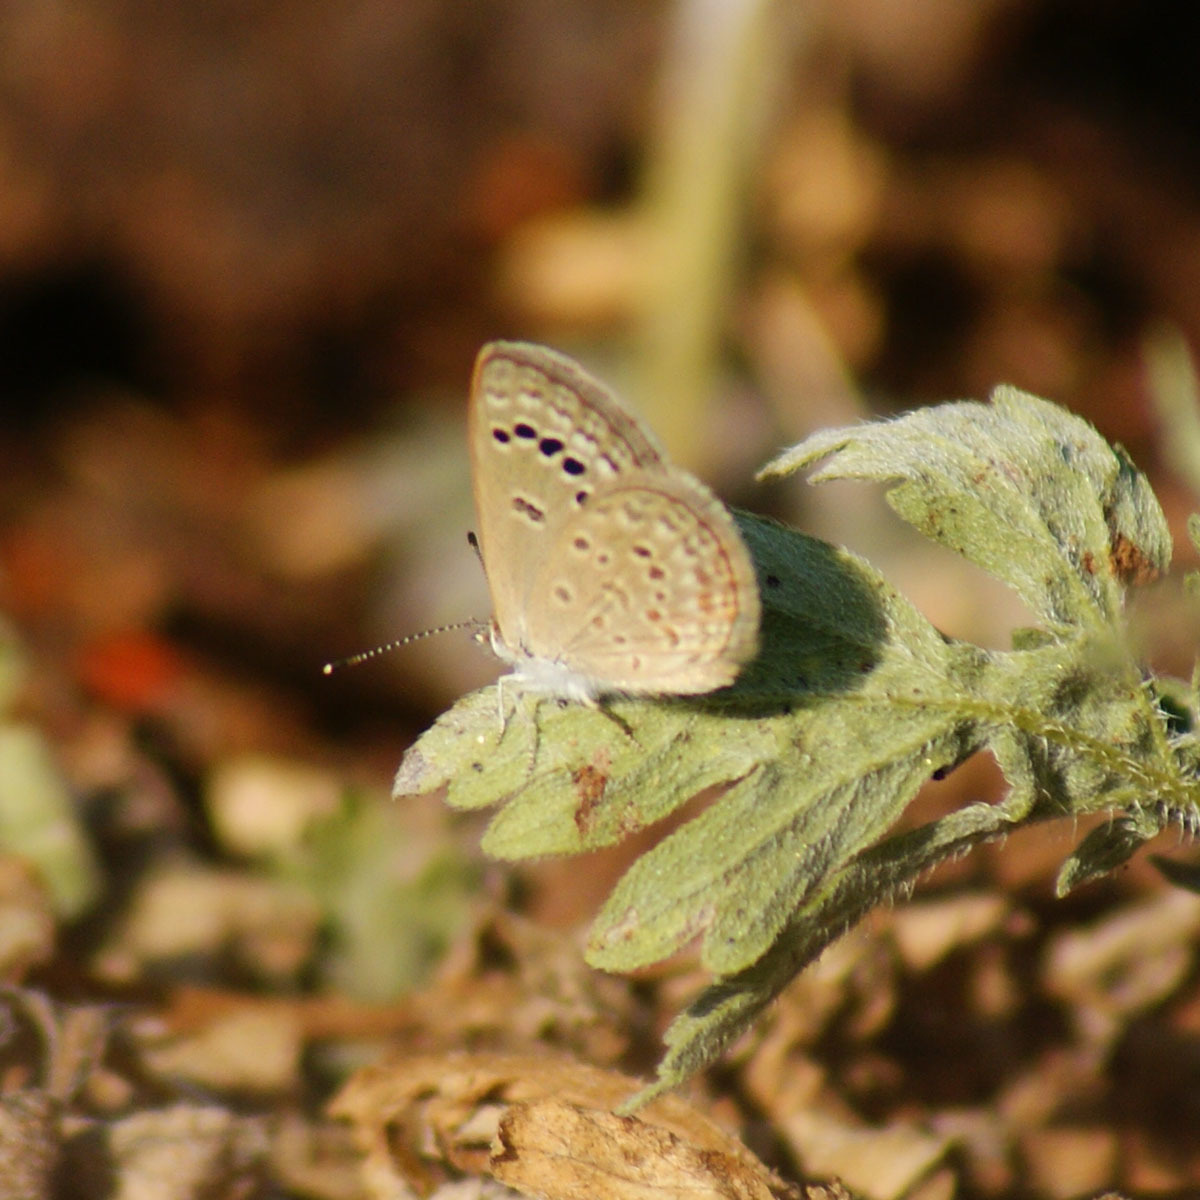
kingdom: Animalia
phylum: Arthropoda
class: Insecta
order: Lepidoptera
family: Lycaenidae
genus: Zizina
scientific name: Zizina otis
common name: Lesser grass blue
